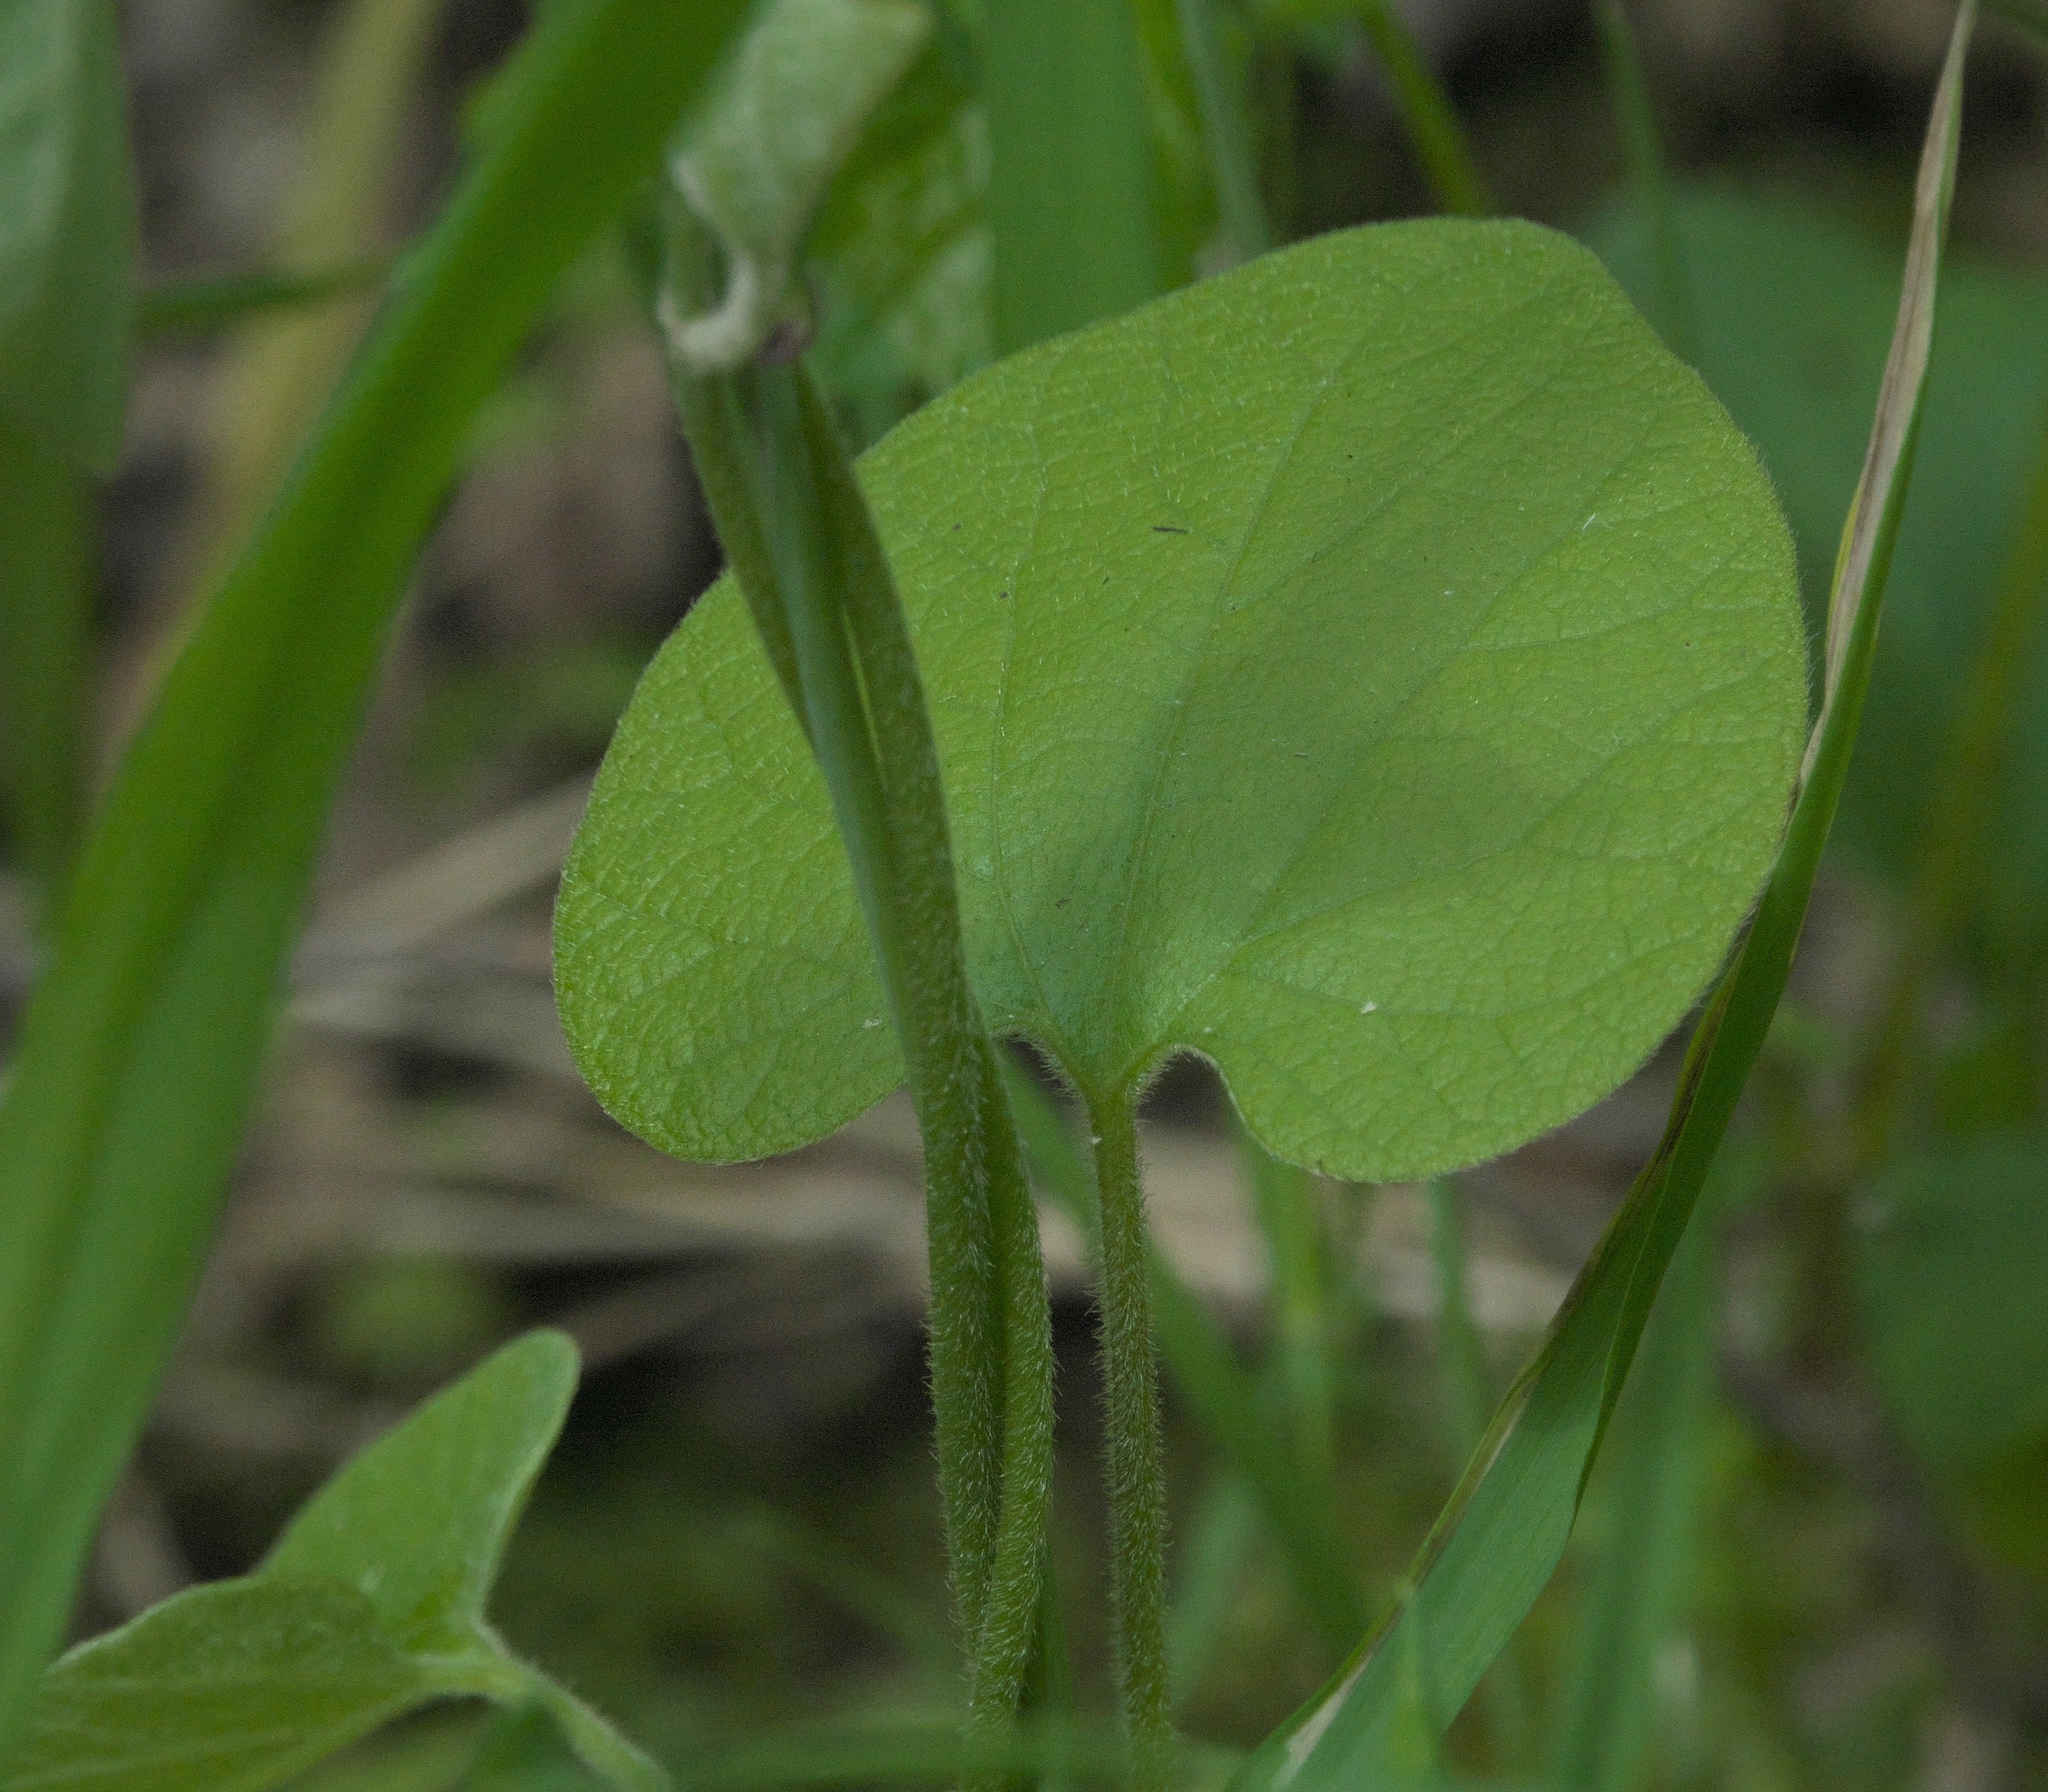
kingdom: Plantae
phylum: Tracheophyta
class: Magnoliopsida
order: Piperales
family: Aristolochiaceae
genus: Isotrema
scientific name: Isotrema tomentosum
